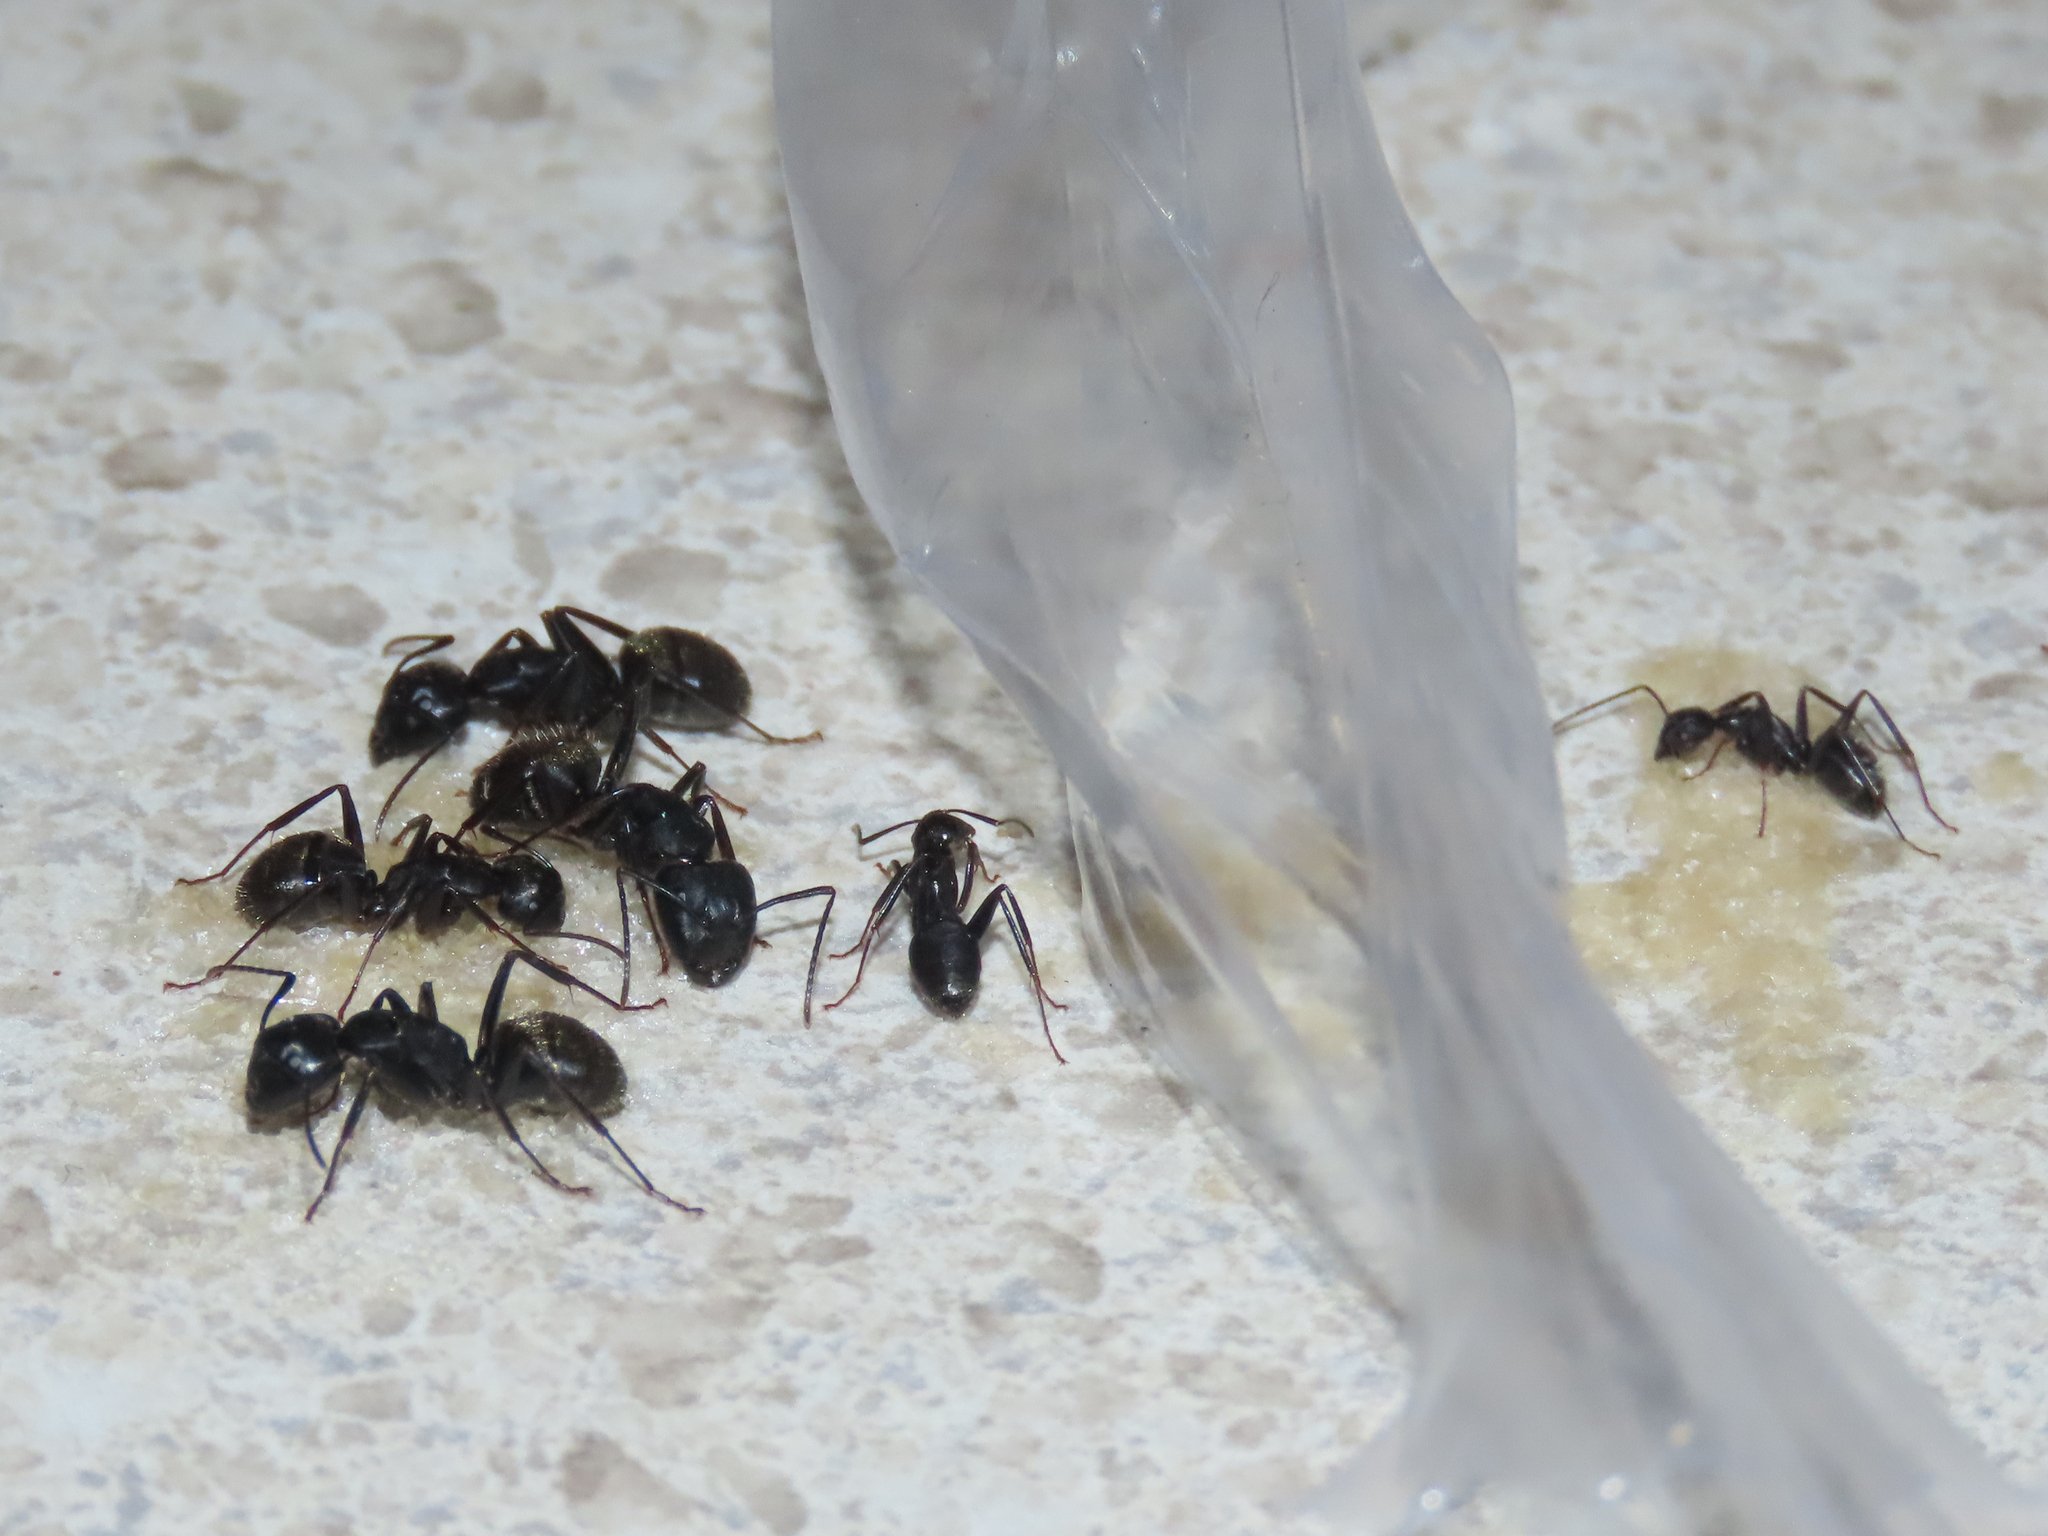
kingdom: Animalia
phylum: Arthropoda
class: Insecta
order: Hymenoptera
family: Formicidae
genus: Camponotus
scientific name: Camponotus pennsylvanicus
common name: Black carpenter ant
